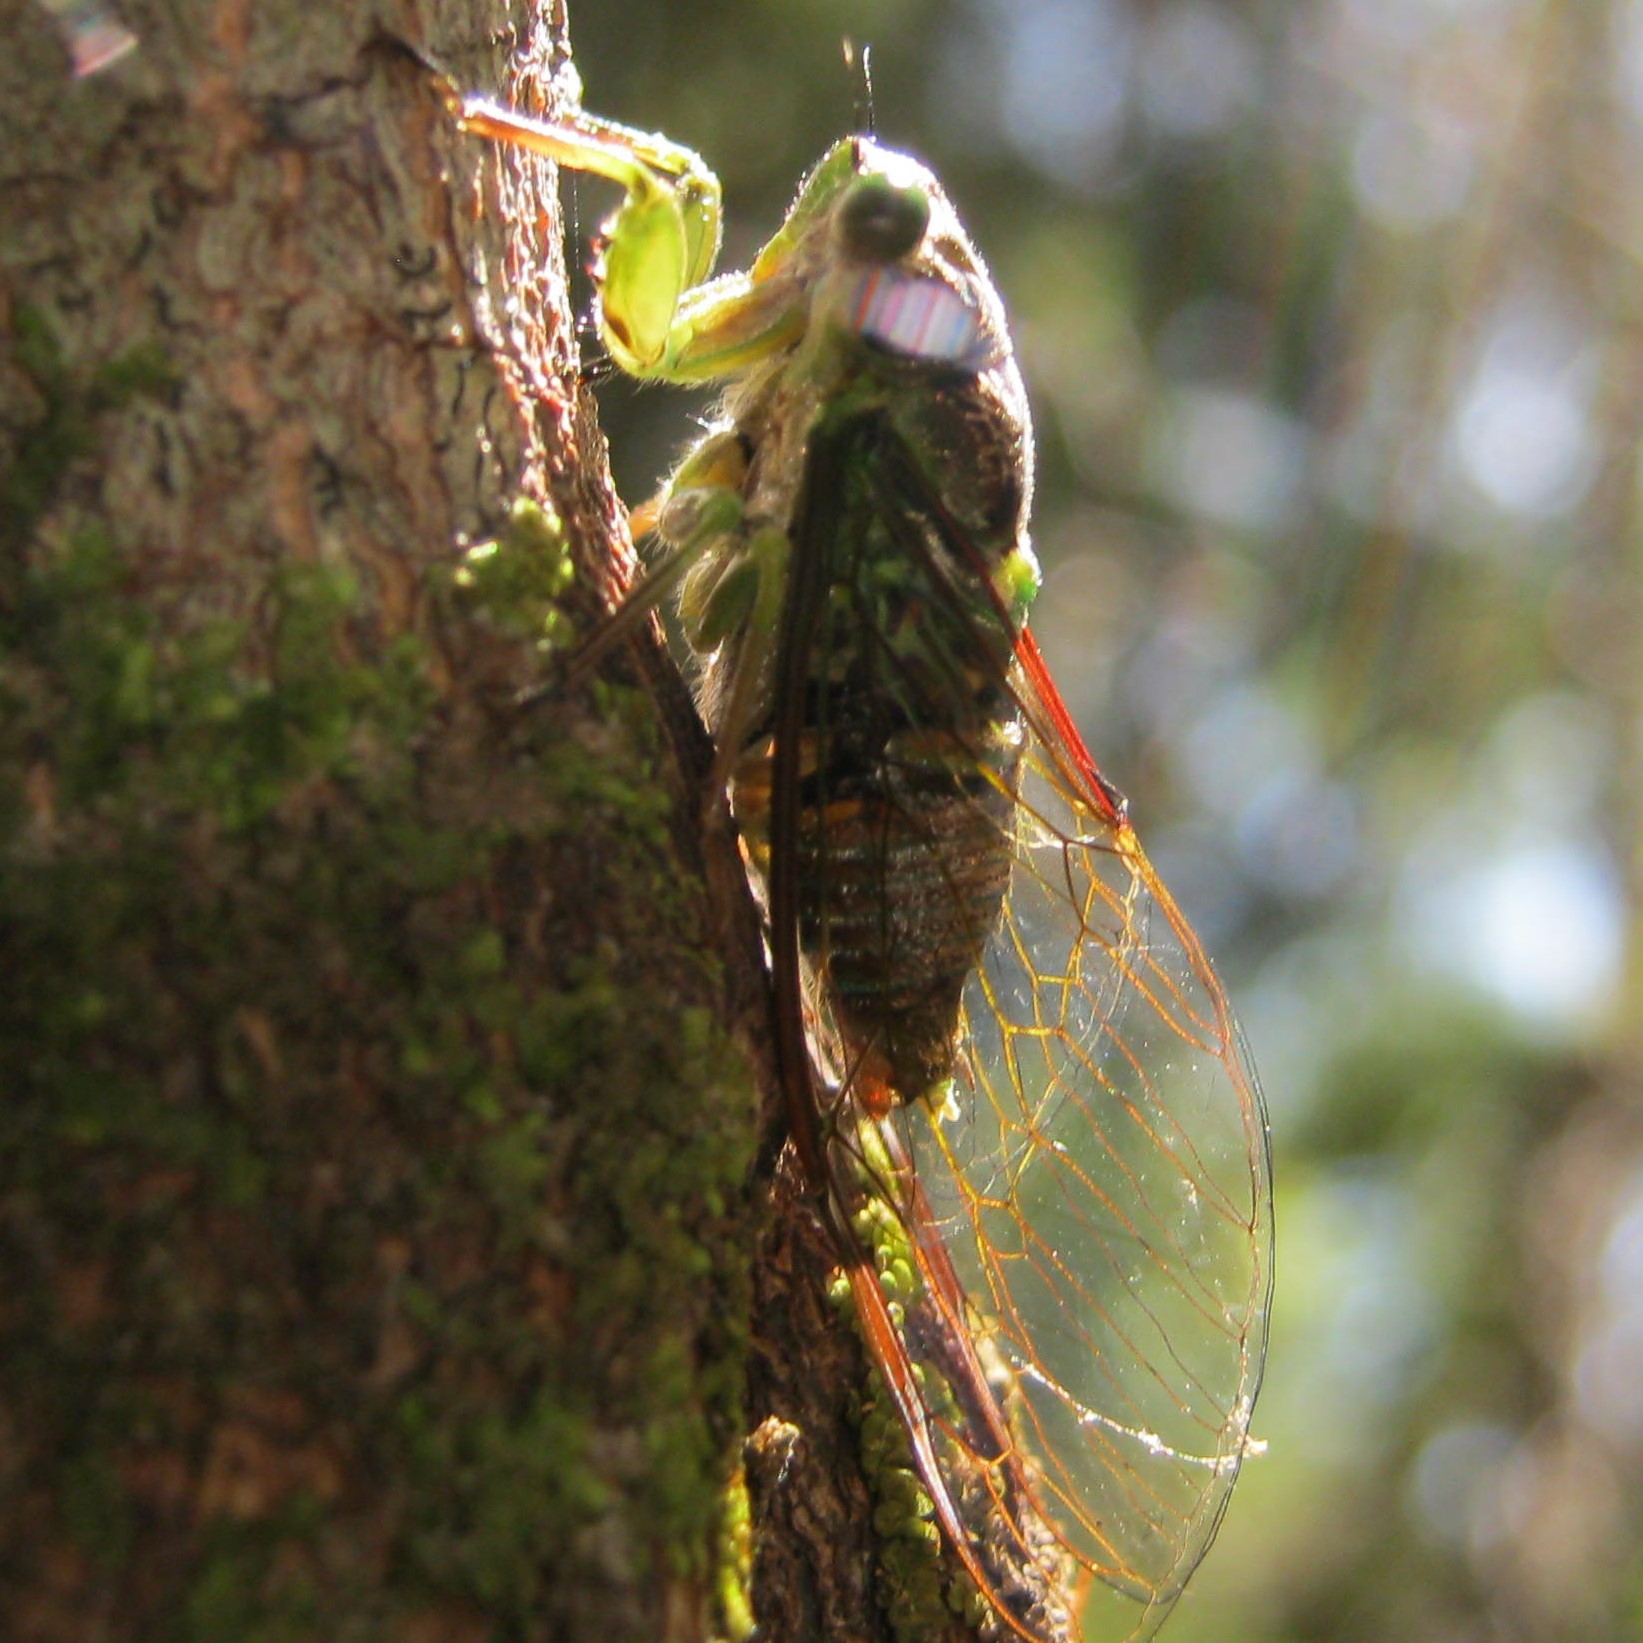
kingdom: Animalia
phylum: Arthropoda
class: Insecta
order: Hemiptera
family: Cicadidae
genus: Kikihia
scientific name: Kikihia scutellaris
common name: Lesser bronze cicada
